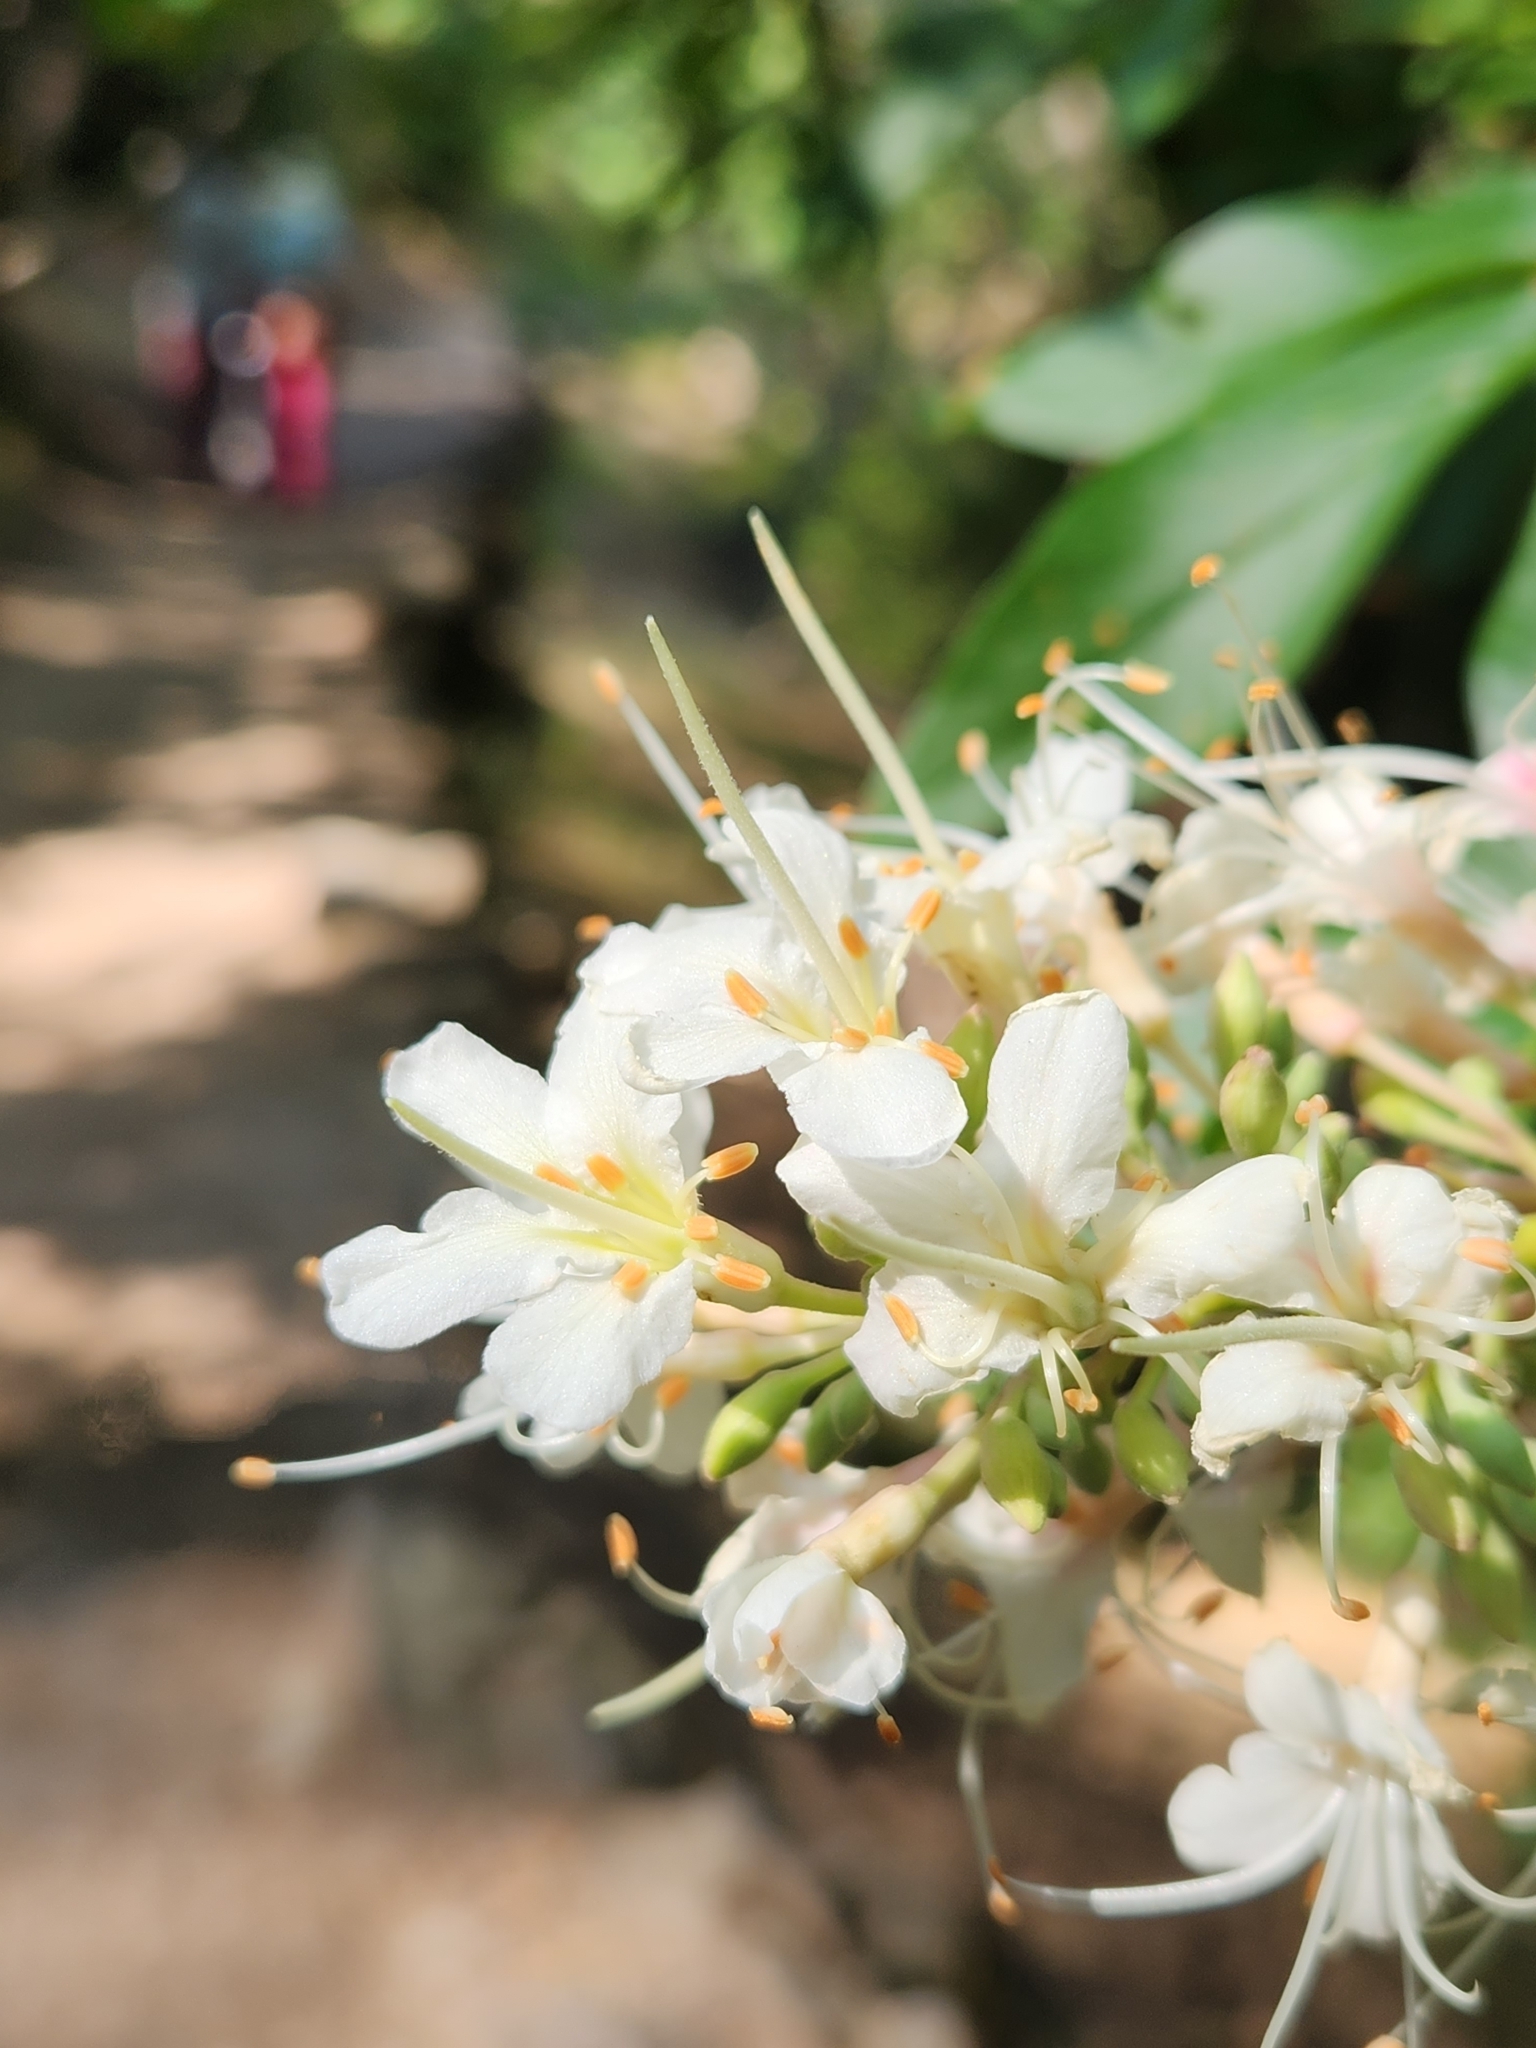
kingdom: Plantae
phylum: Tracheophyta
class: Magnoliopsida
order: Sapindales
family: Sapindaceae
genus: Aesculus
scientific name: Aesculus californica
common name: California buckeye
